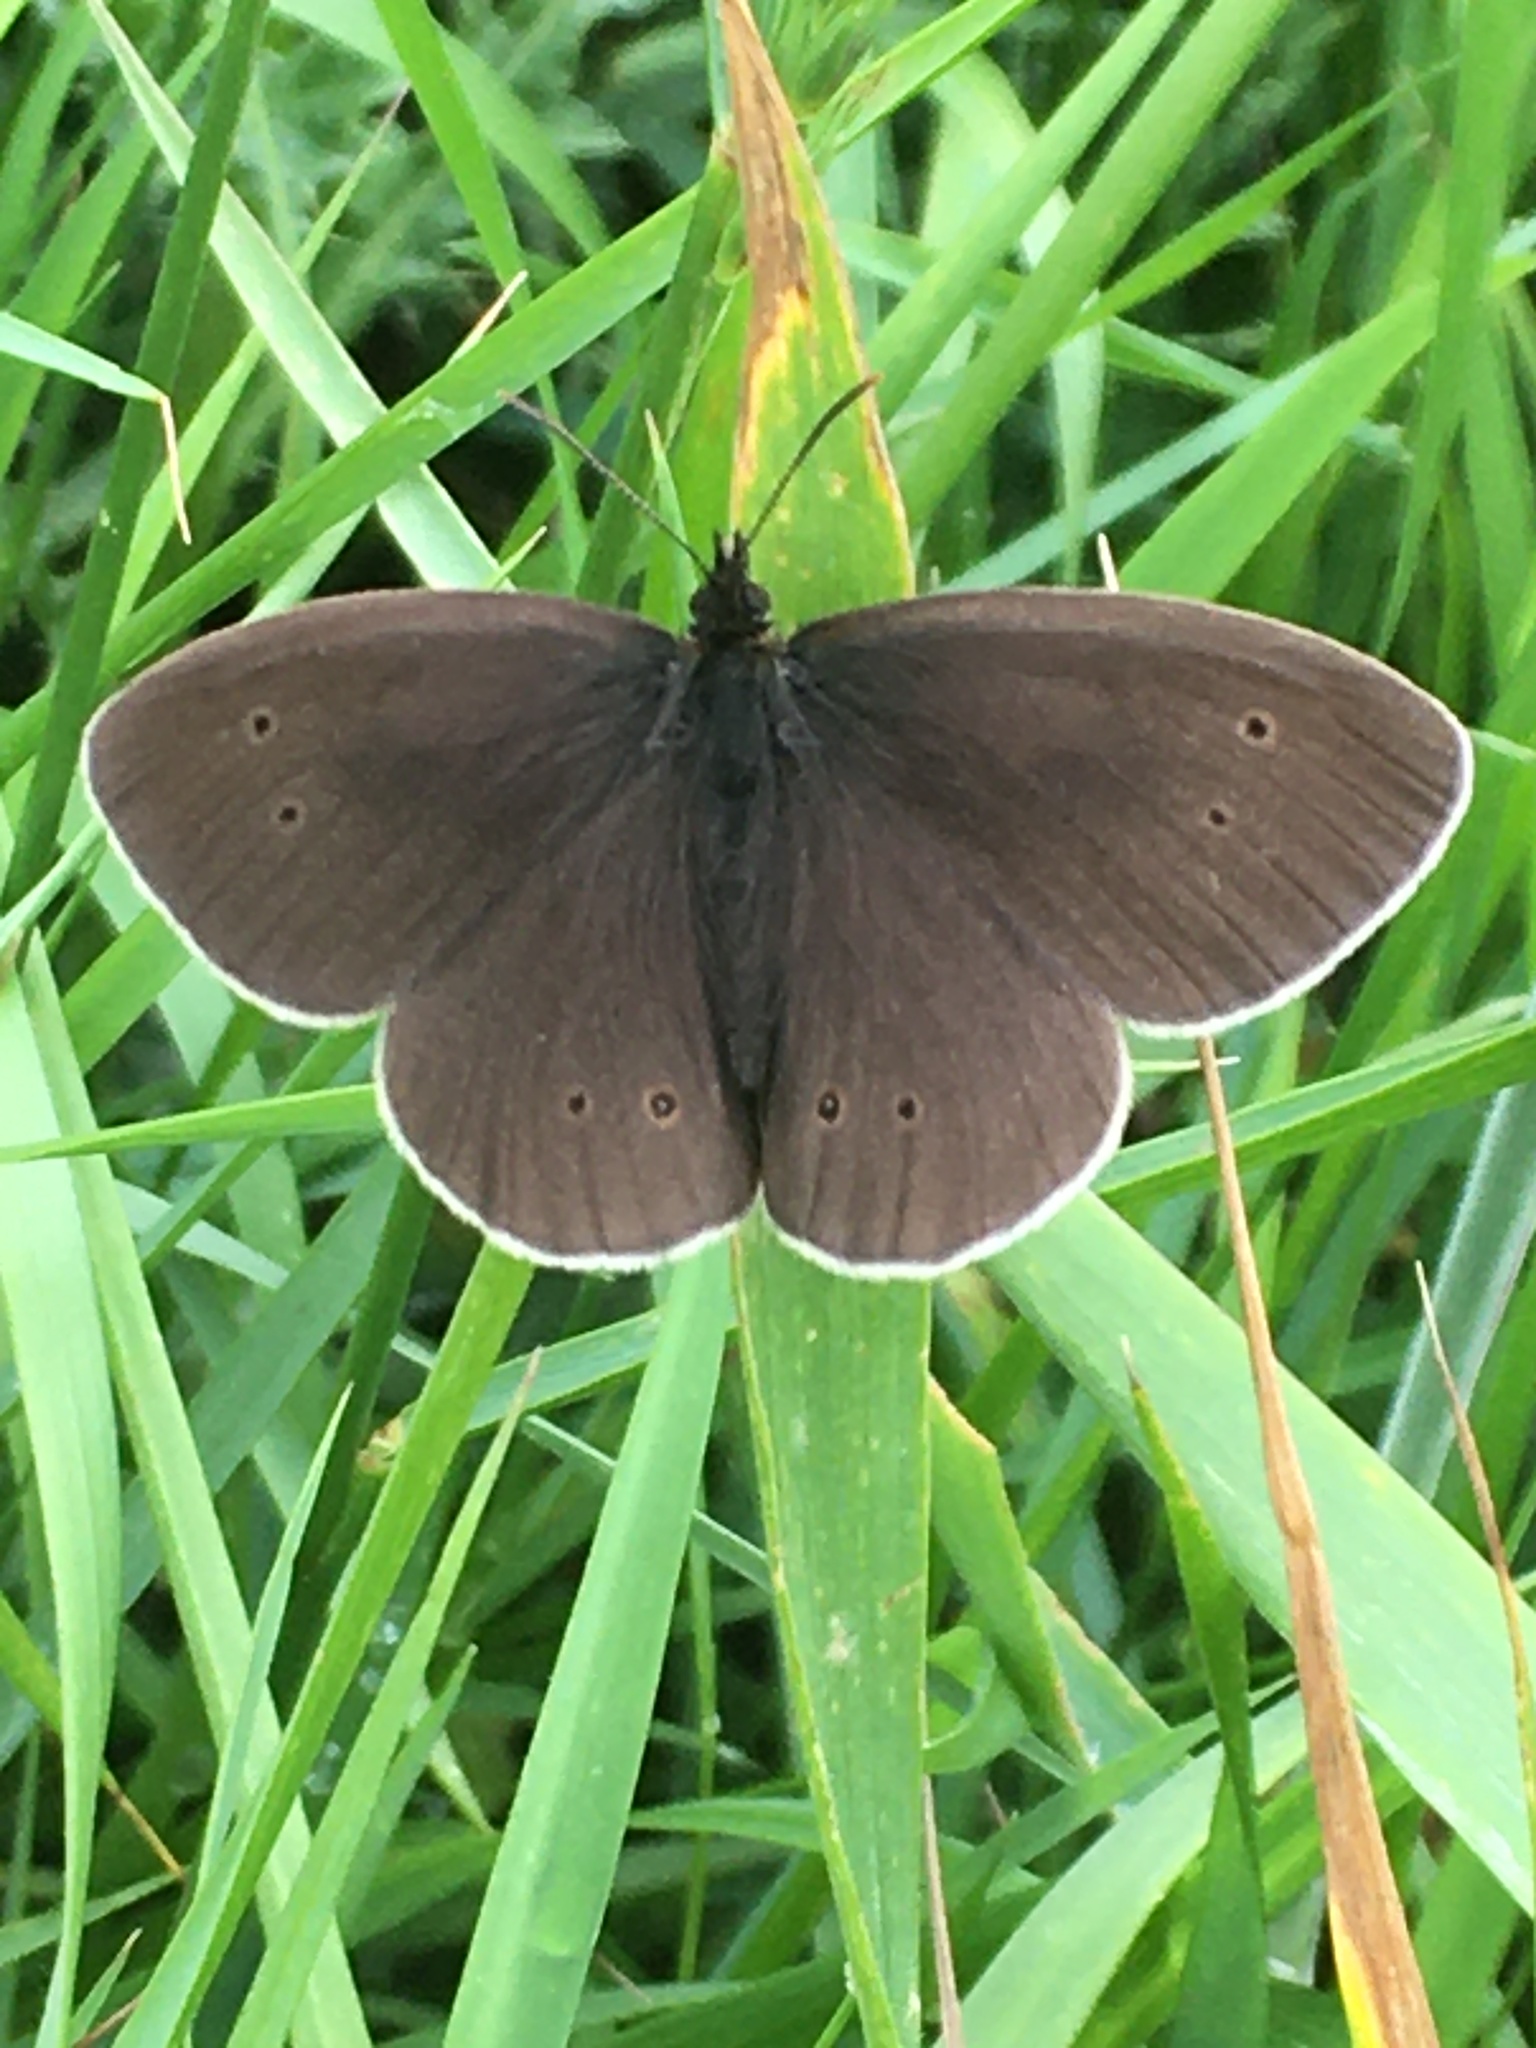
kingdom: Animalia
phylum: Arthropoda
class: Insecta
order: Lepidoptera
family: Nymphalidae
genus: Aphantopus
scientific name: Aphantopus hyperantus
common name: Ringlet
